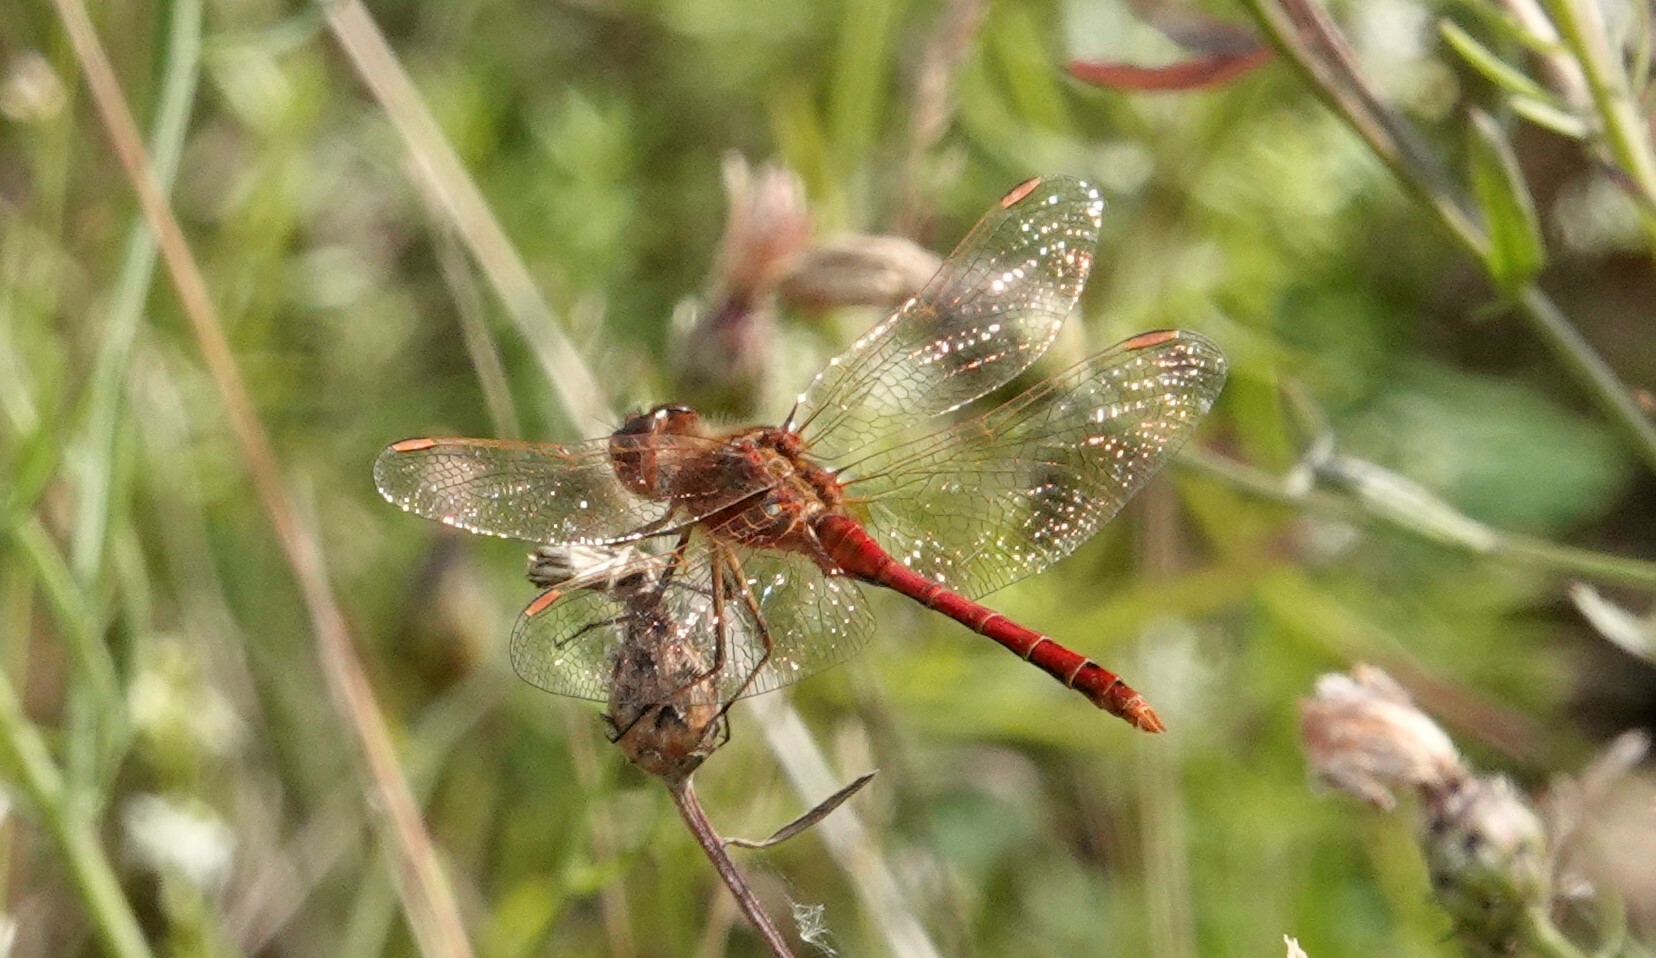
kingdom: Animalia
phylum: Arthropoda
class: Insecta
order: Odonata
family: Libellulidae
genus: Sympetrum
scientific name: Sympetrum costiferum
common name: Saffron-winged meadowhawk
